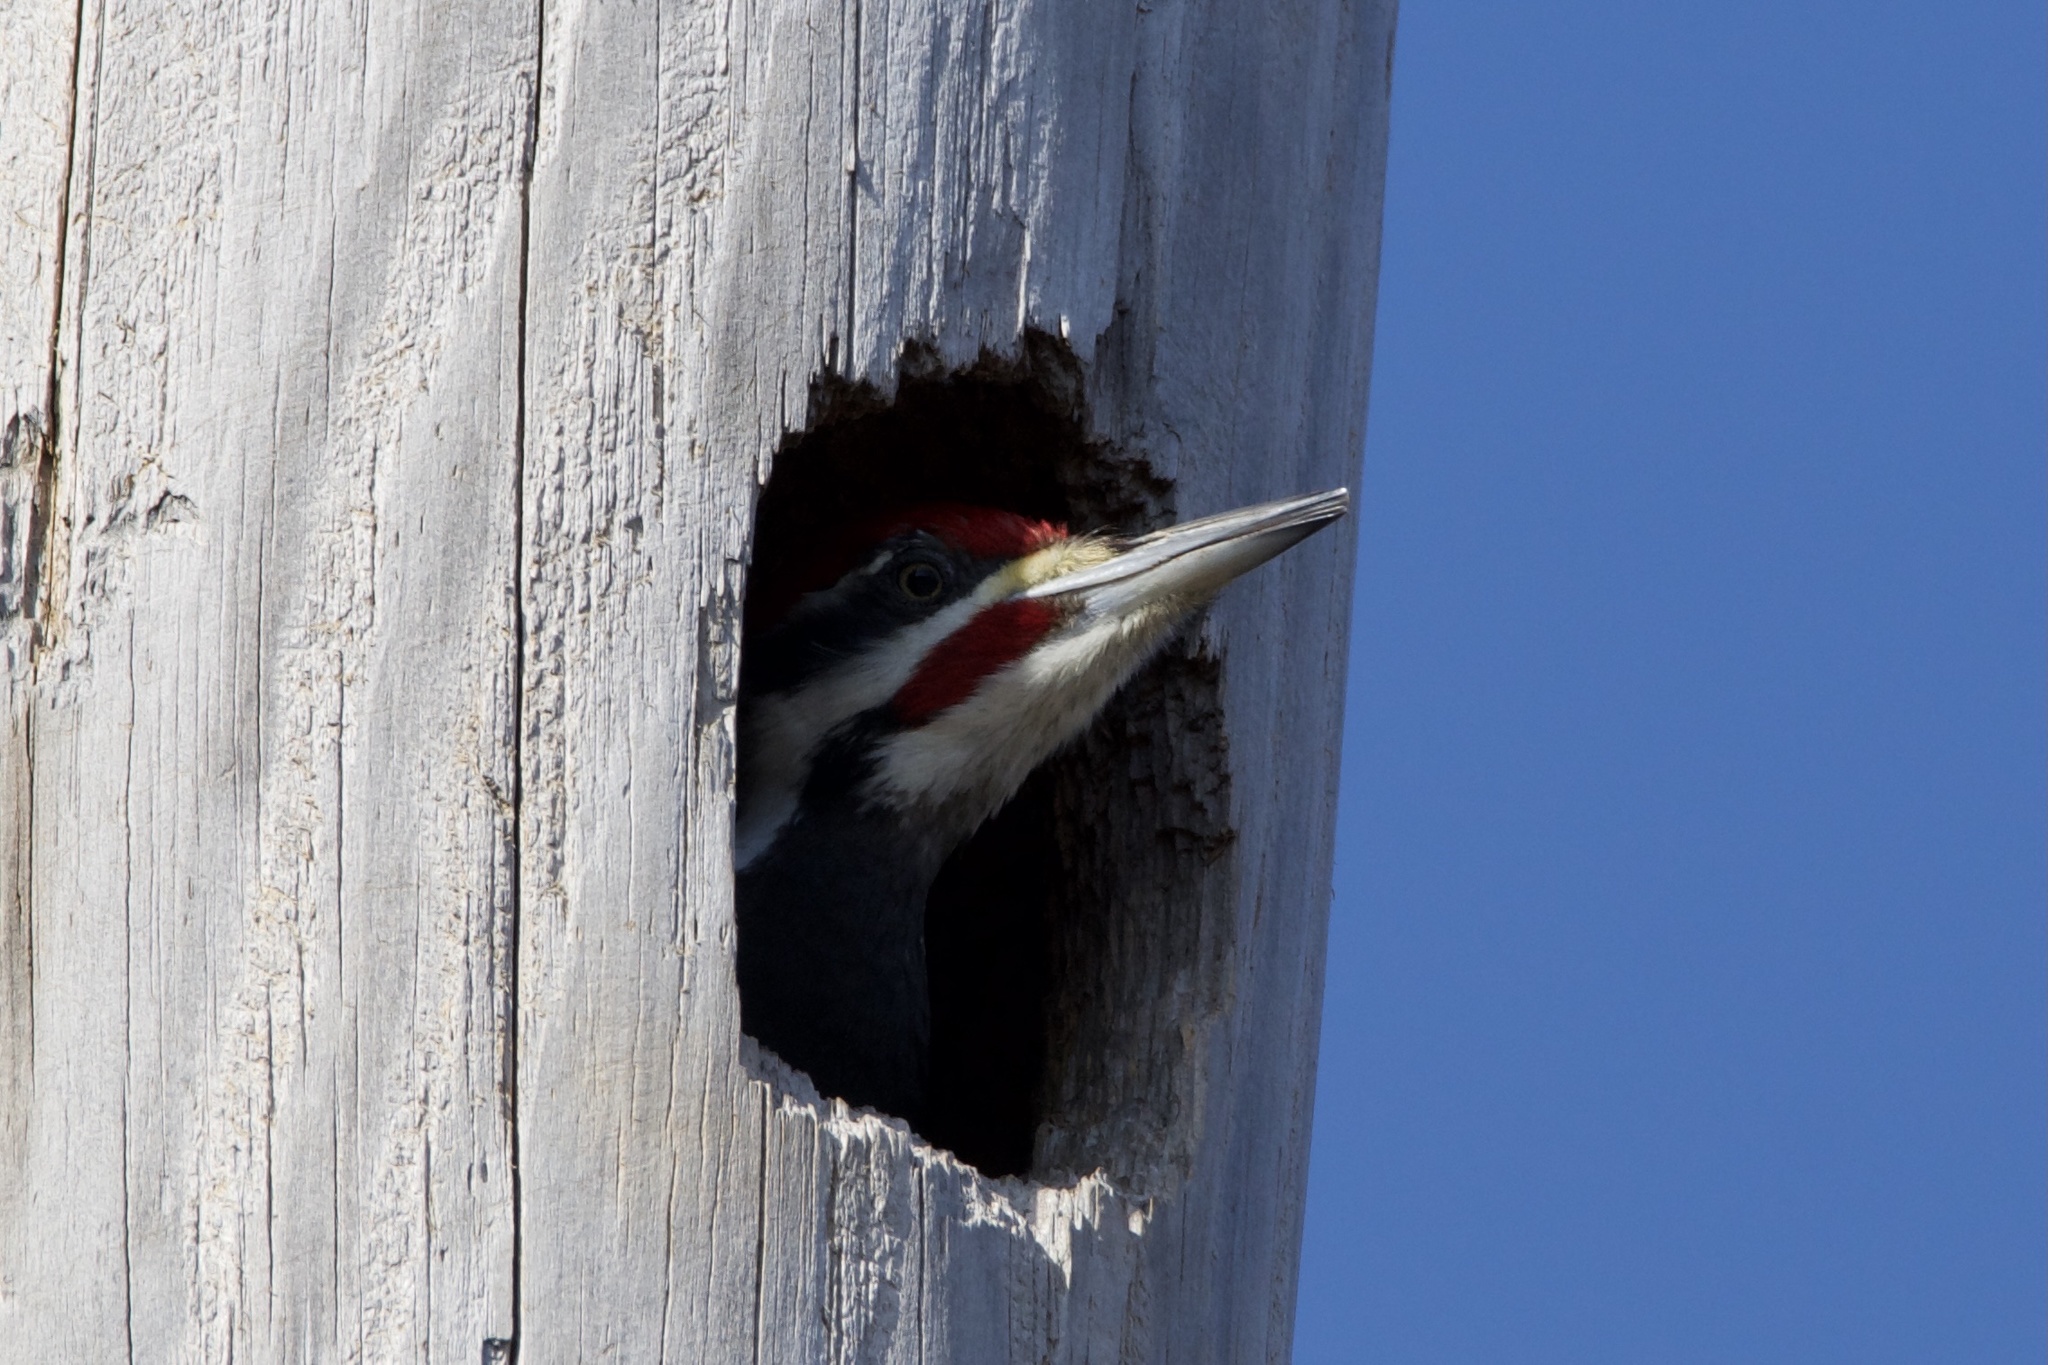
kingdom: Animalia
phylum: Chordata
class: Aves
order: Piciformes
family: Picidae
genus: Dryocopus
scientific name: Dryocopus pileatus
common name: Pileated woodpecker
